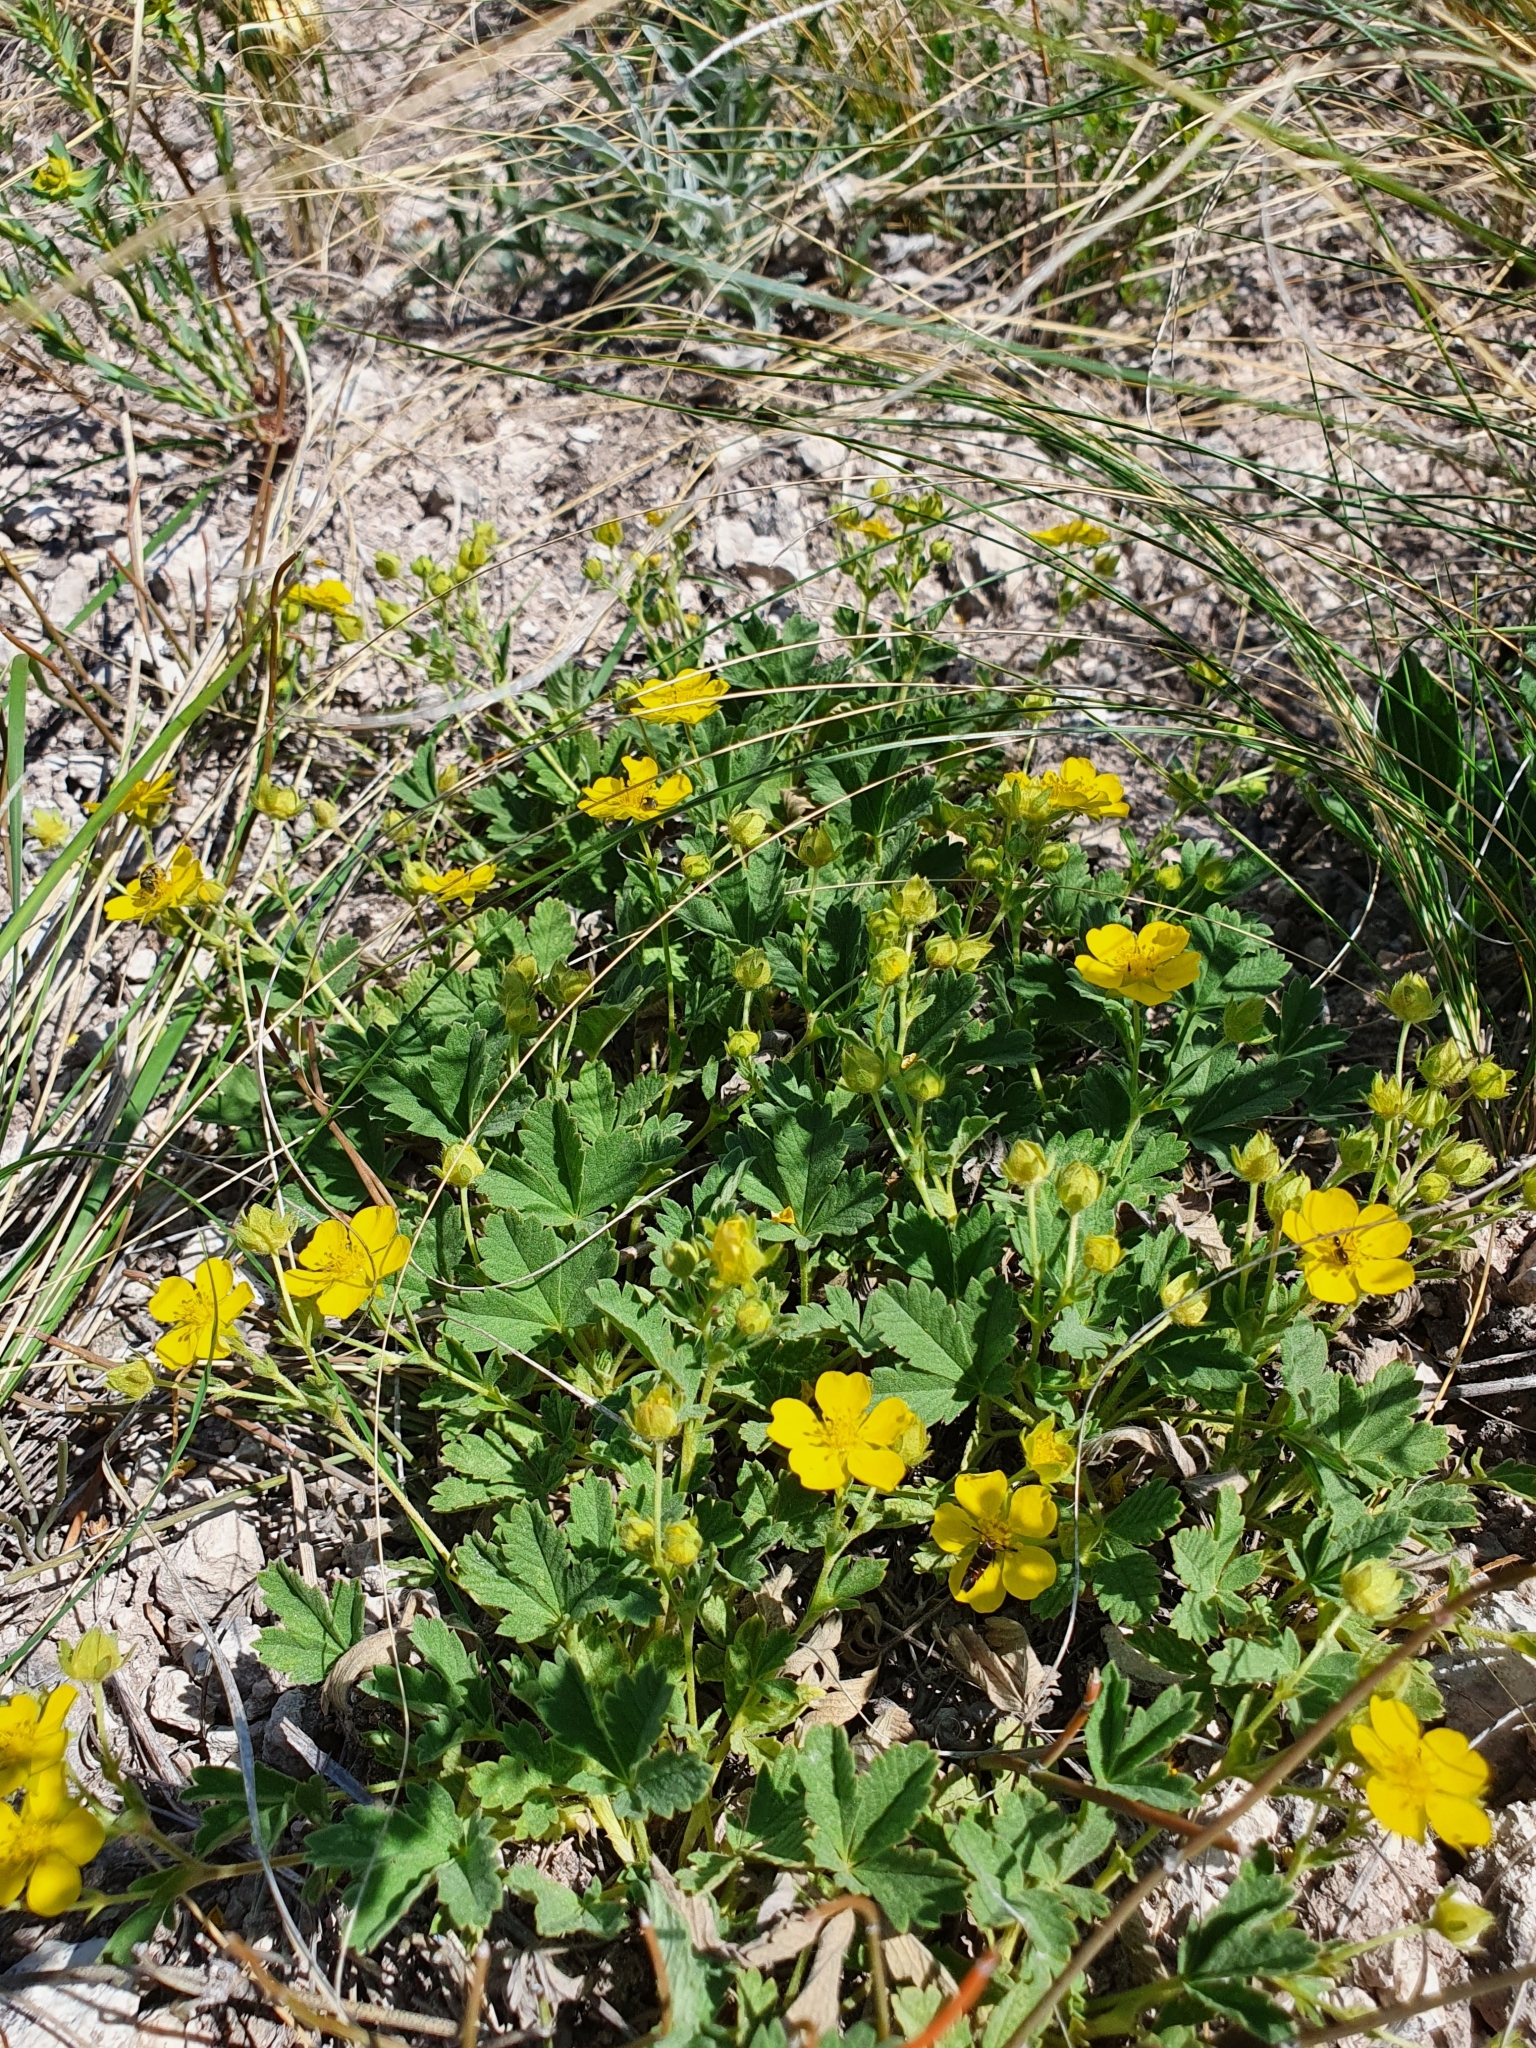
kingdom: Plantae
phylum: Tracheophyta
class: Magnoliopsida
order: Rosales
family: Rosaceae
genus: Potentilla
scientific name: Potentilla incana
